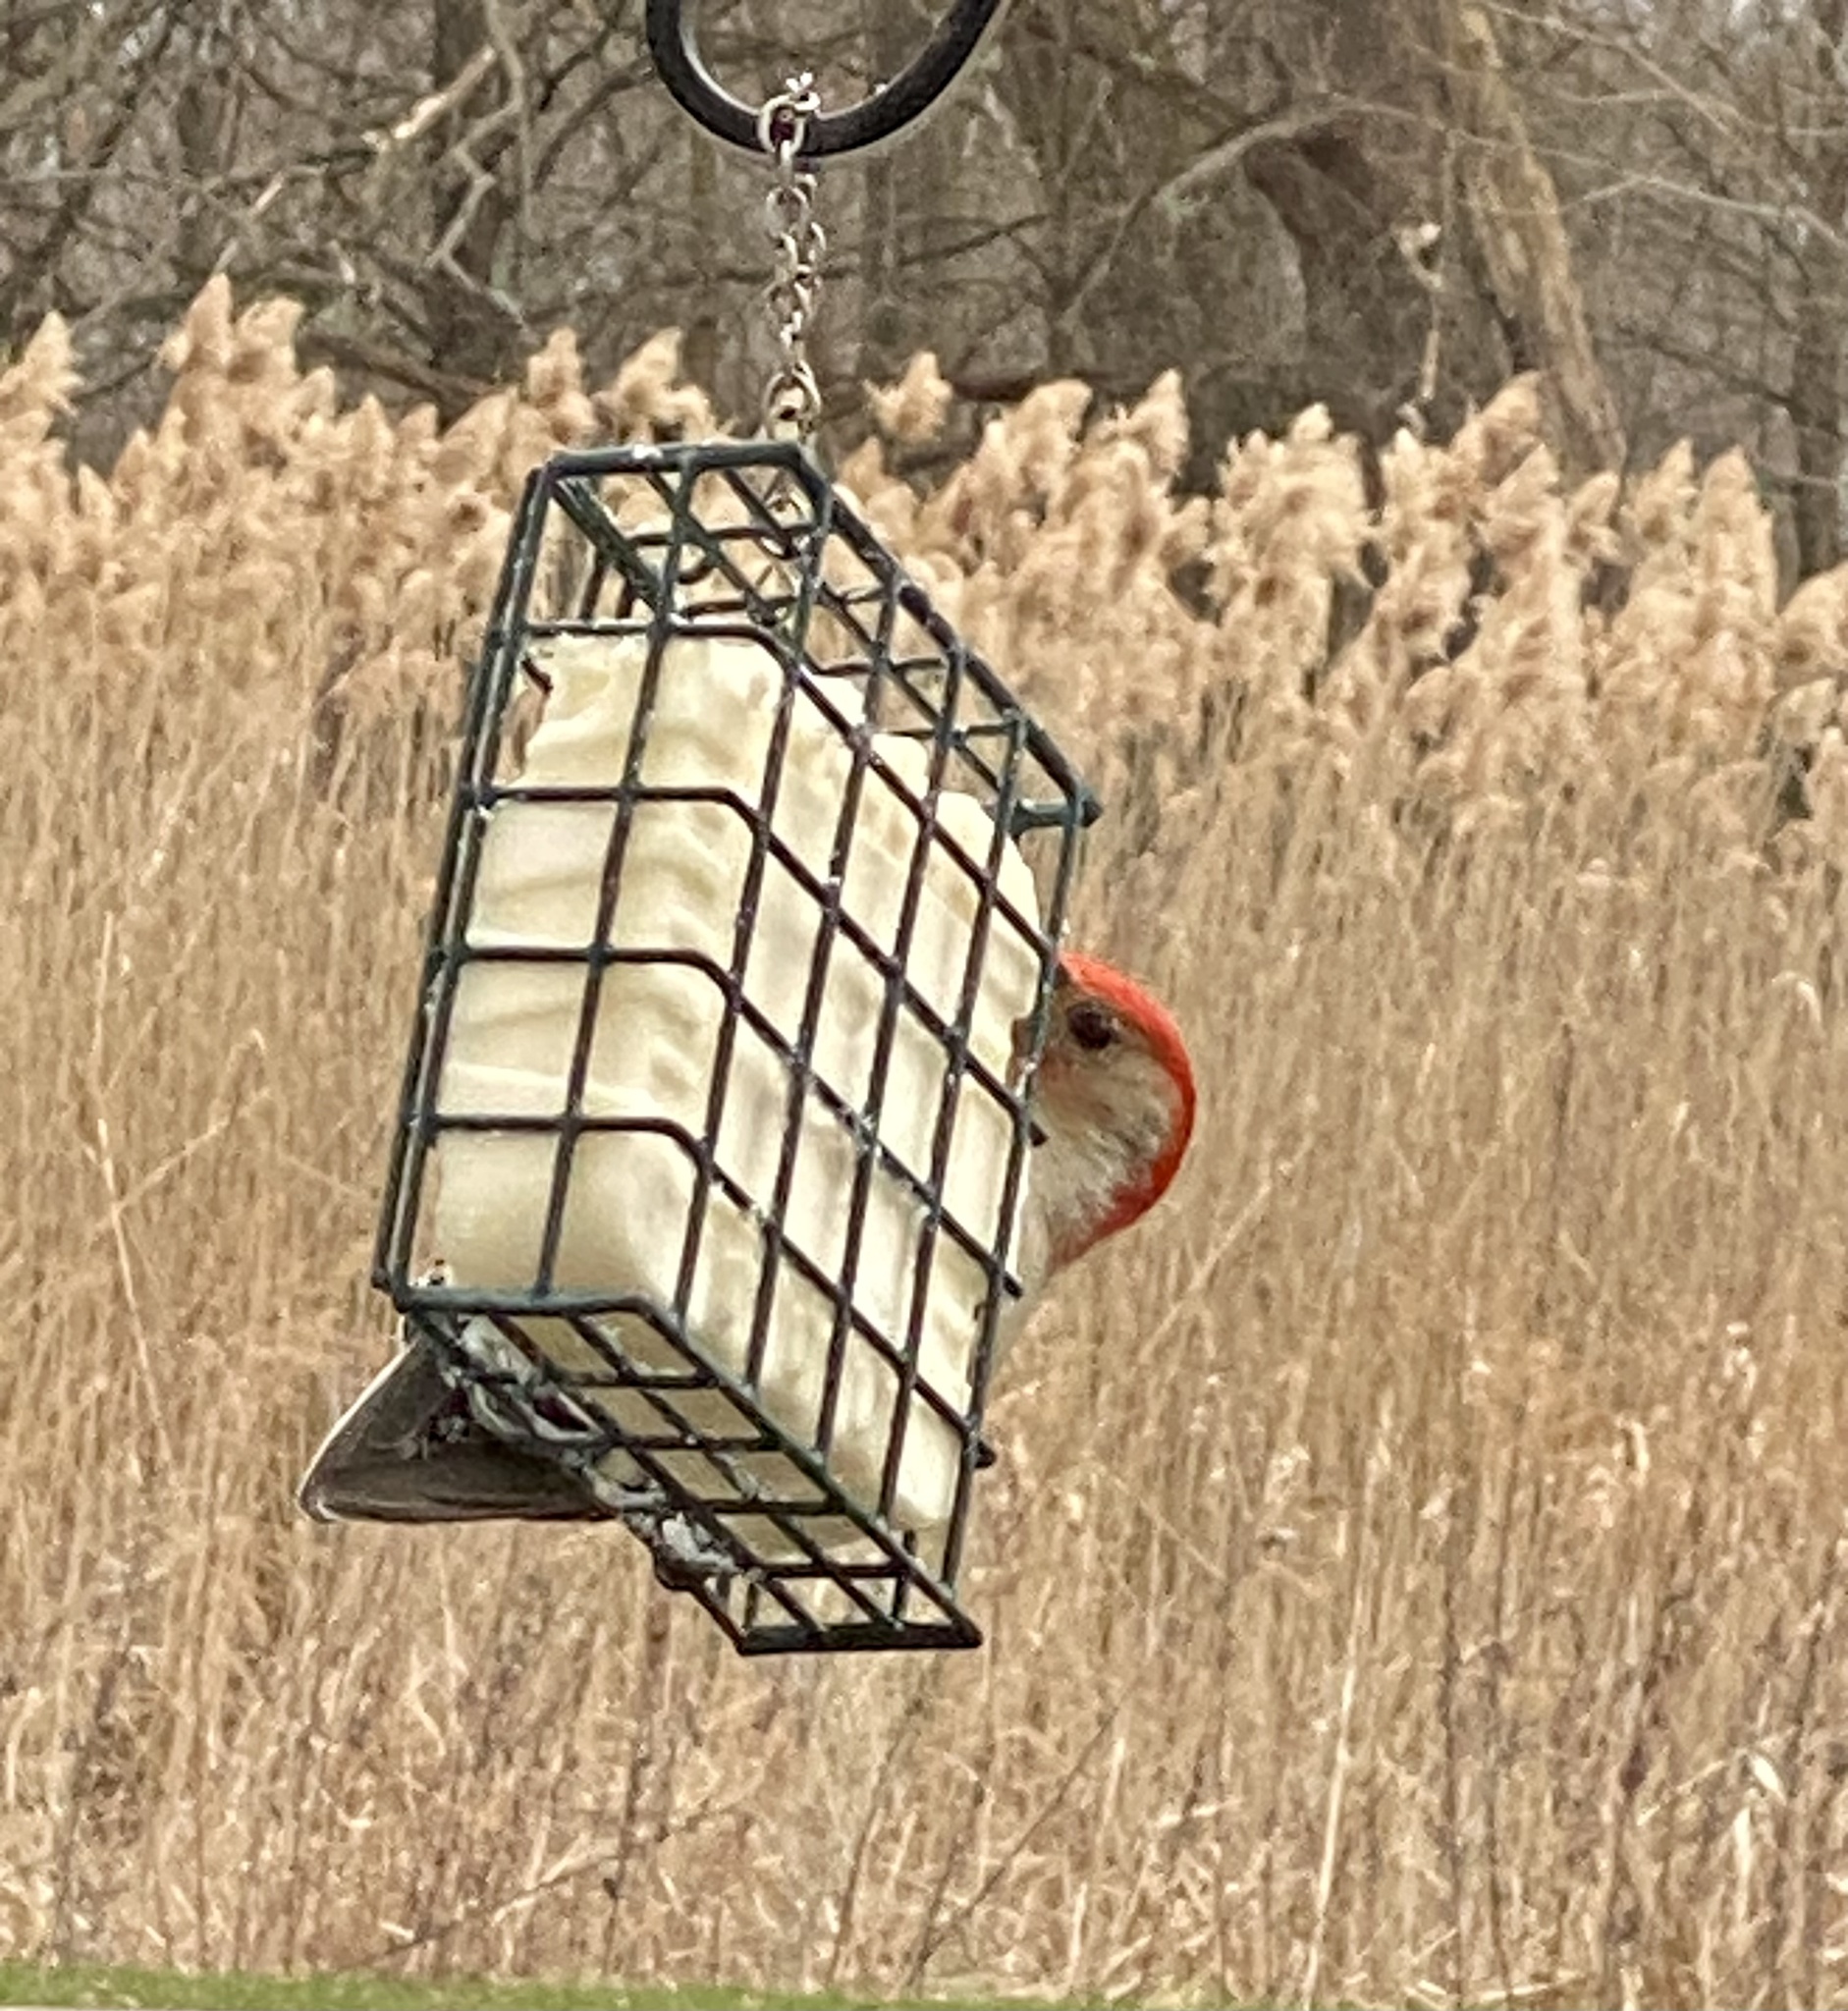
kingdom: Animalia
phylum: Chordata
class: Aves
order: Piciformes
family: Picidae
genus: Melanerpes
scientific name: Melanerpes carolinus
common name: Red-bellied woodpecker
